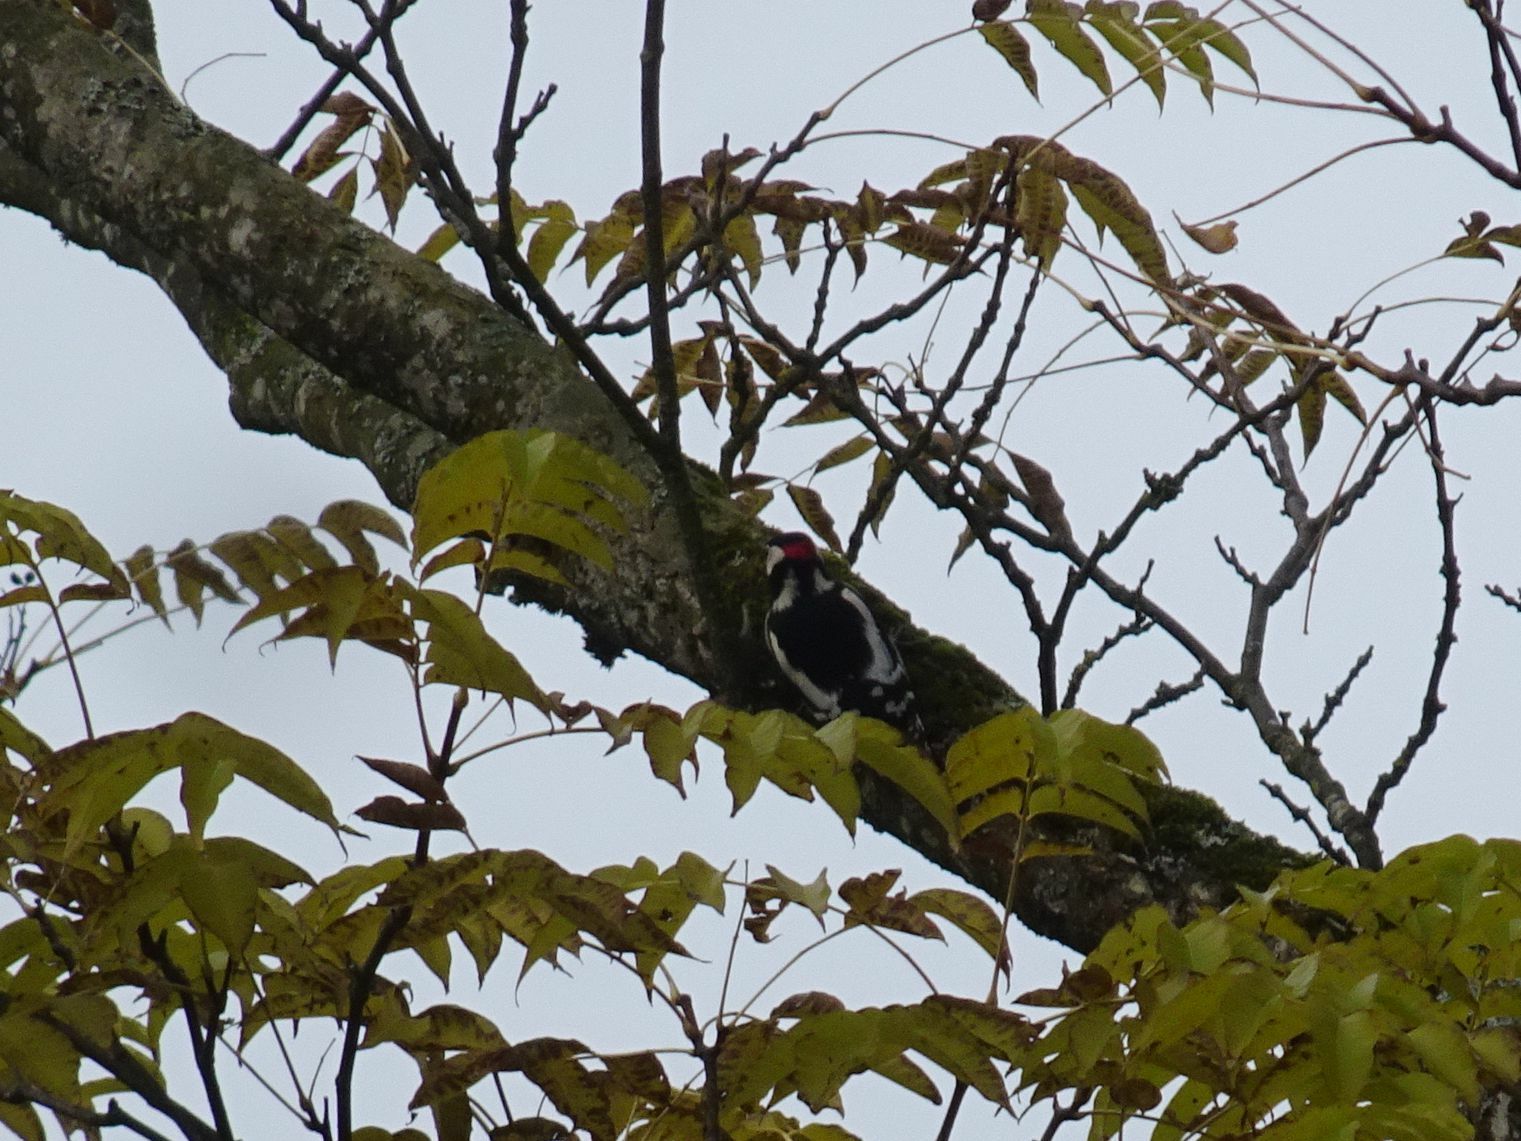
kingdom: Animalia
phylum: Chordata
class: Aves
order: Piciformes
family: Picidae
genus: Dendrocopos
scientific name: Dendrocopos major
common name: Great spotted woodpecker
